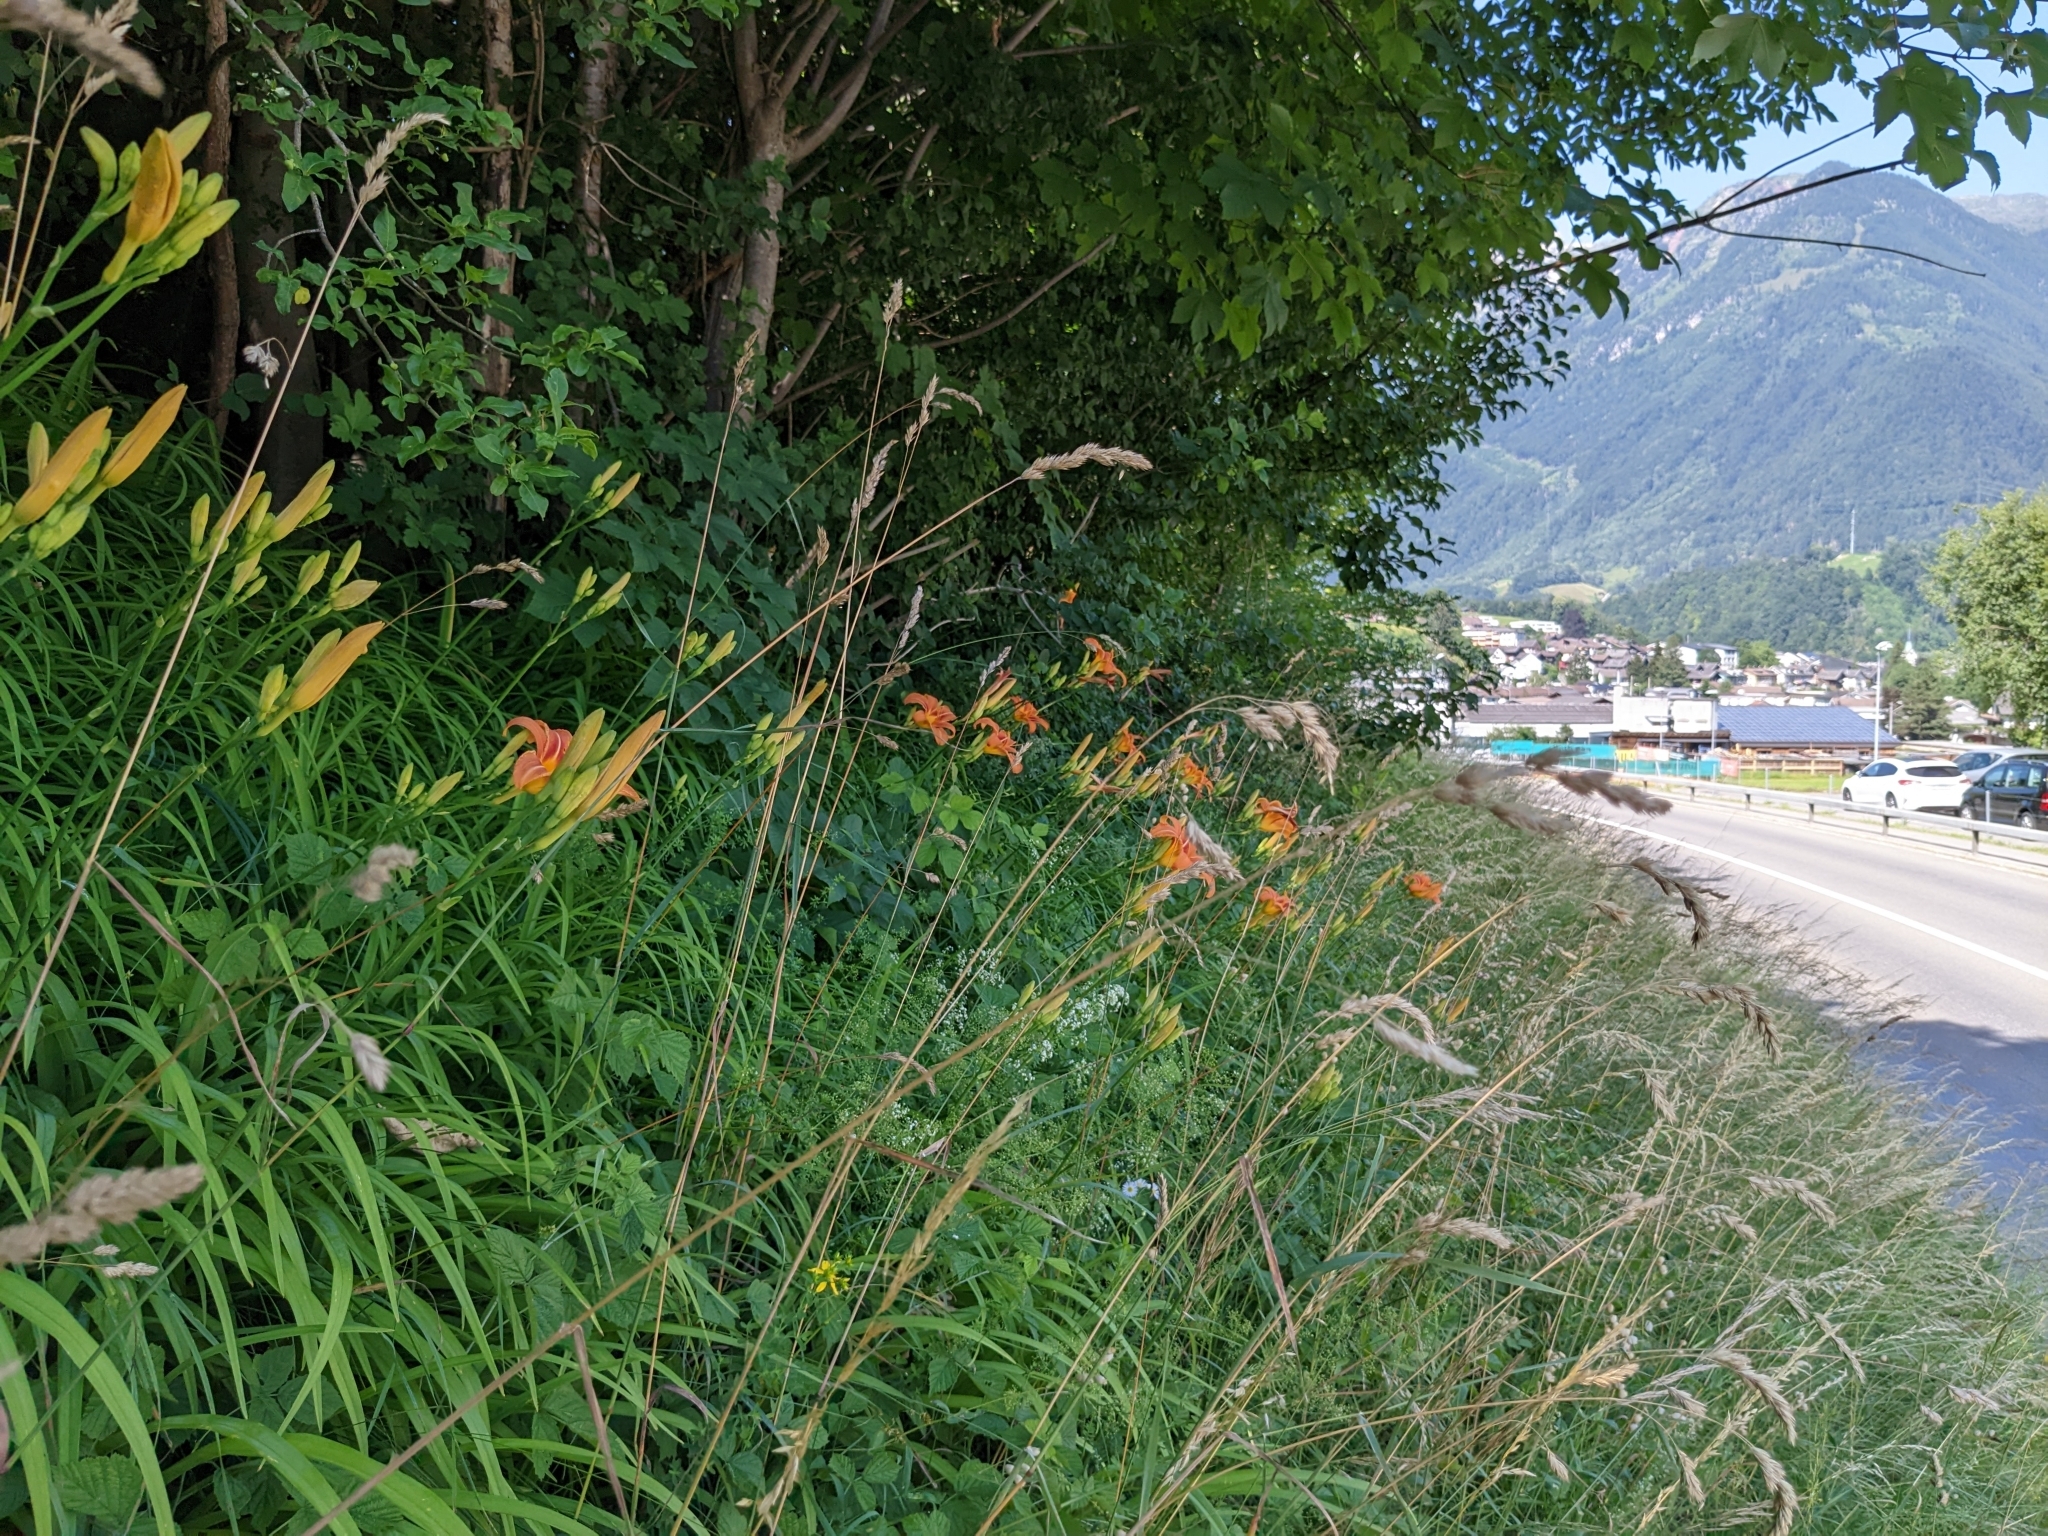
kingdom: Plantae
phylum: Tracheophyta
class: Liliopsida
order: Asparagales
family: Asphodelaceae
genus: Hemerocallis
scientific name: Hemerocallis fulva
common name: Orange day-lily
